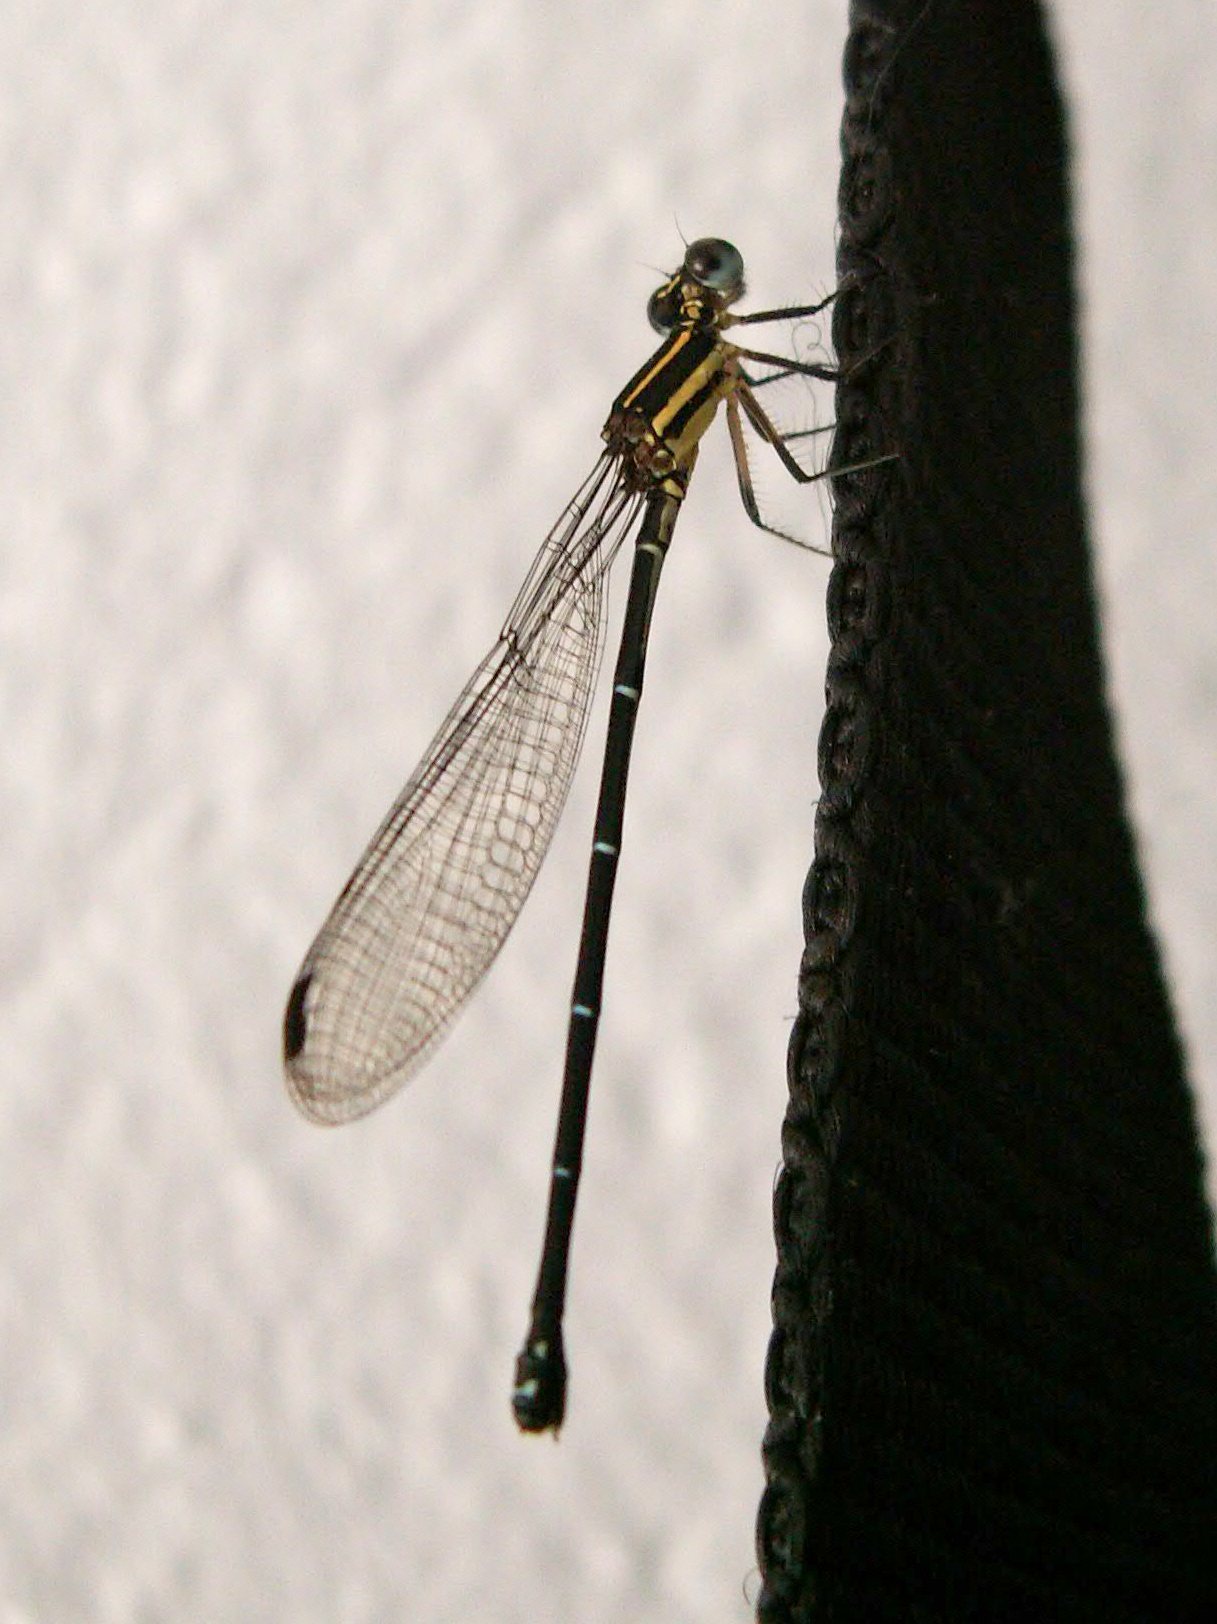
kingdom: Animalia
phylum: Arthropoda
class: Insecta
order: Odonata
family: Coenagrionidae
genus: Argia
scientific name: Argia concinna
